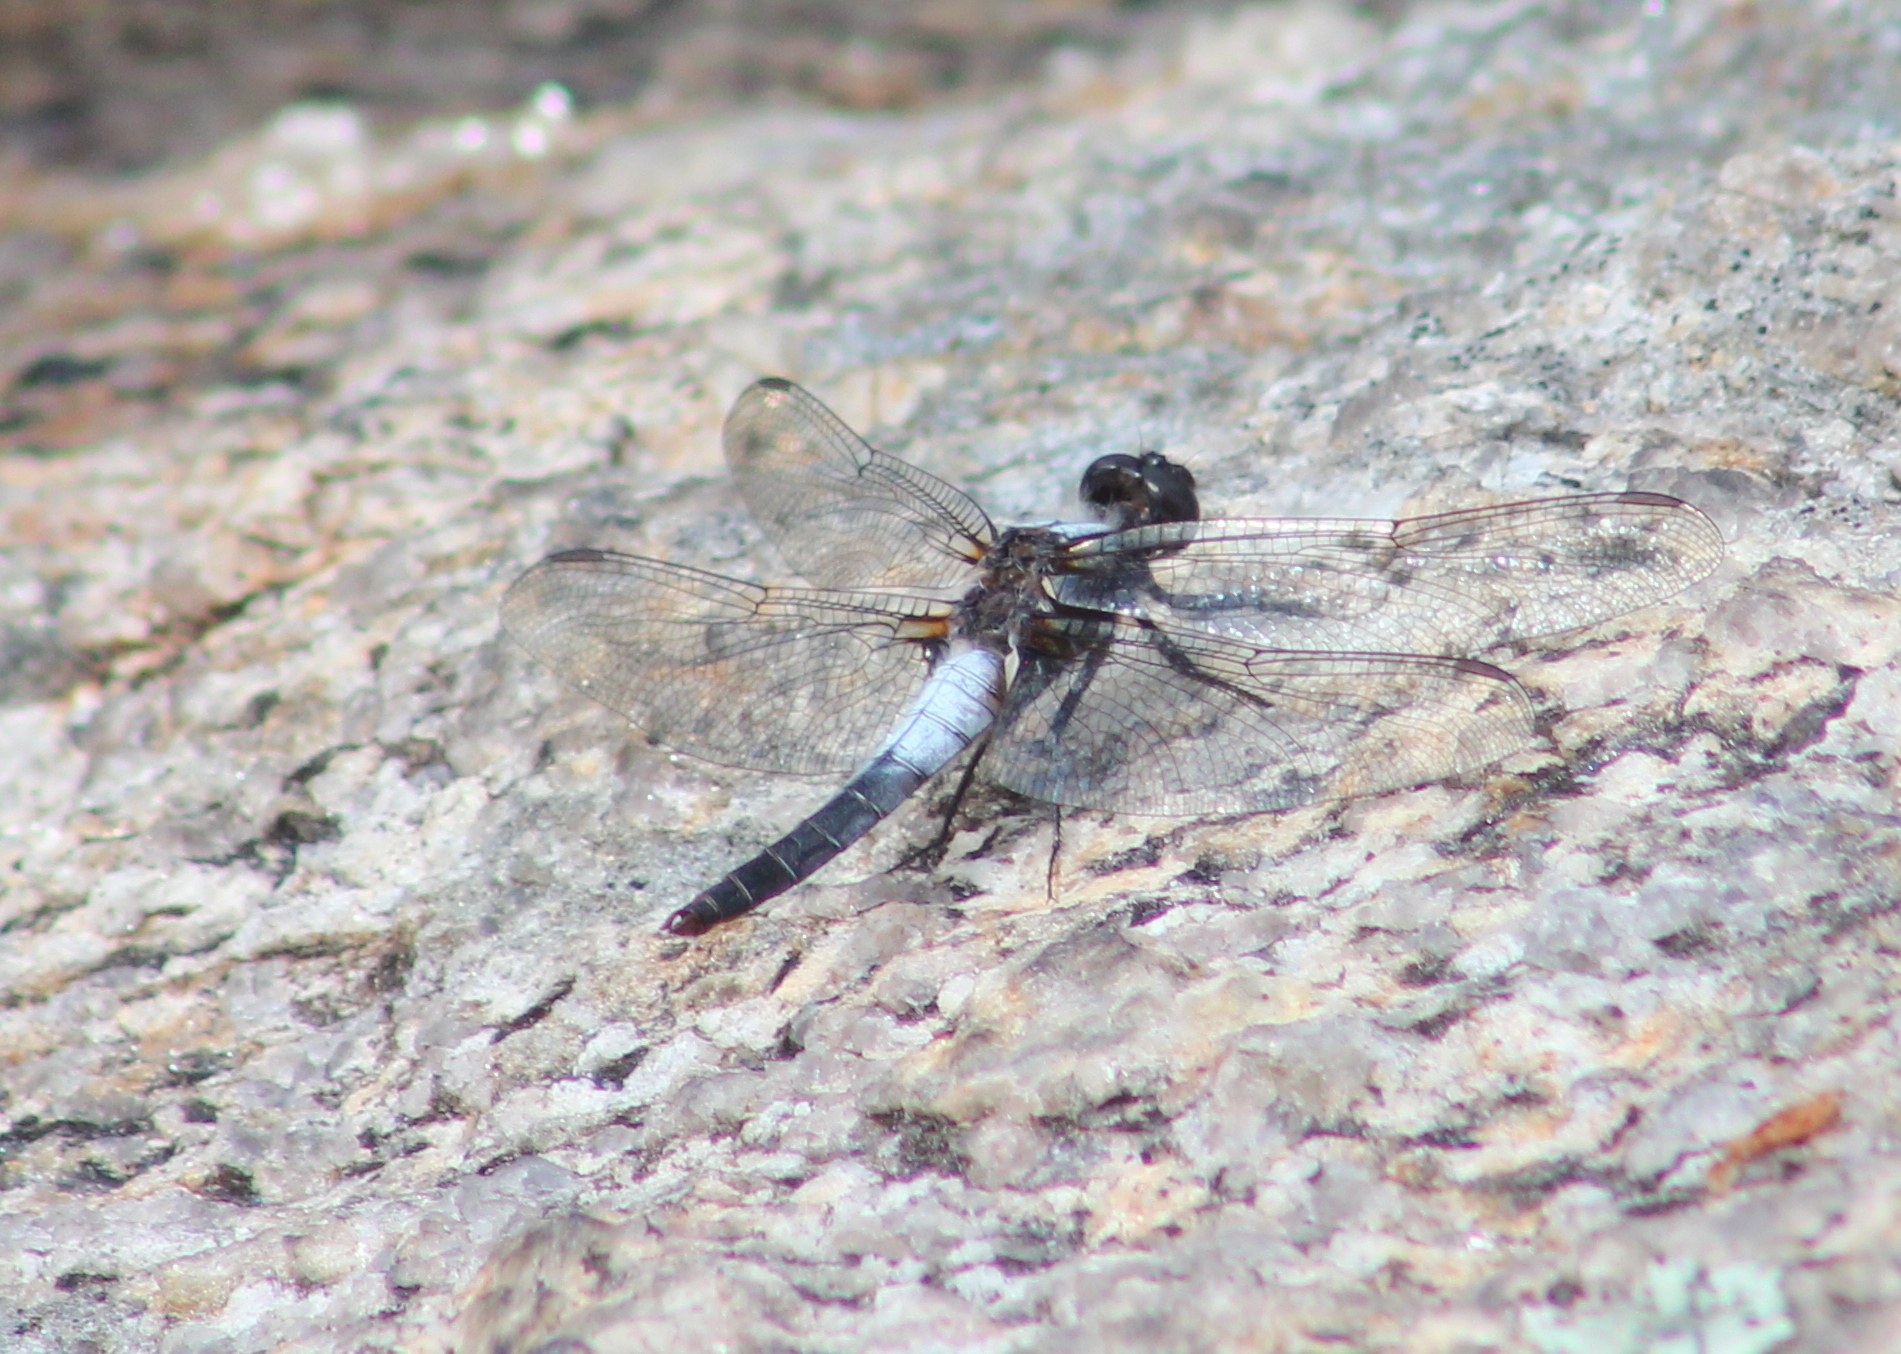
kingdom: Animalia
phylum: Arthropoda
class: Insecta
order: Odonata
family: Libellulidae
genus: Ladona
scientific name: Ladona julia
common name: Chalk-fronted corporal
